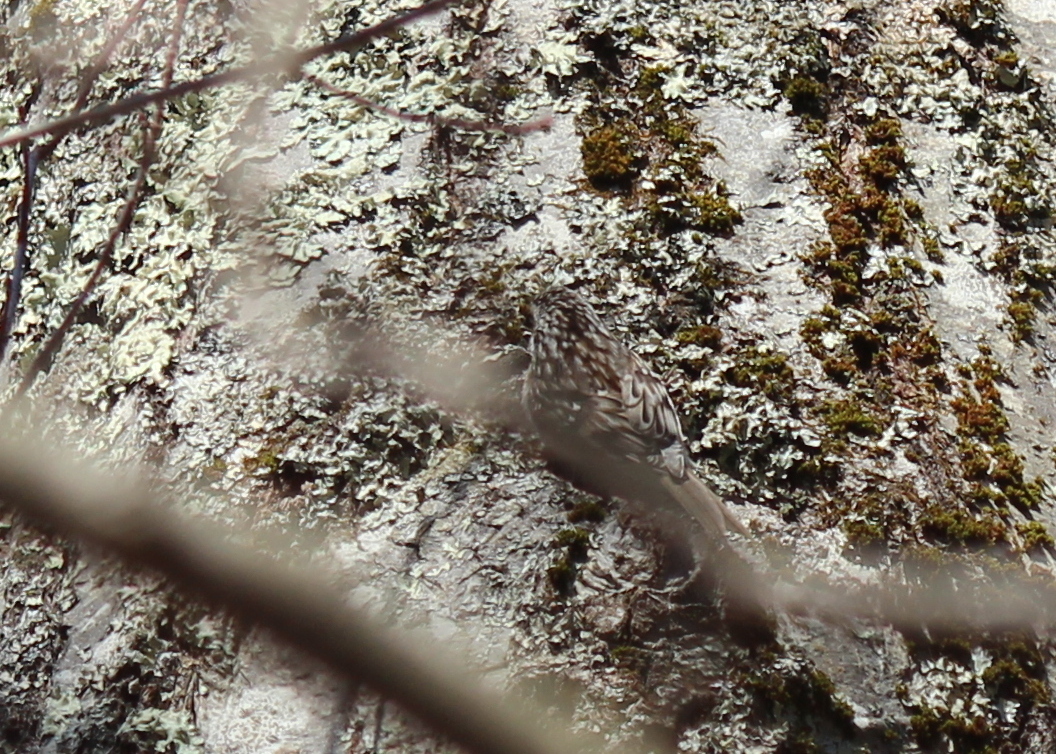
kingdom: Animalia
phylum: Chordata
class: Aves
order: Passeriformes
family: Certhiidae
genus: Certhia
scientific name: Certhia americana
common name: Brown creeper
